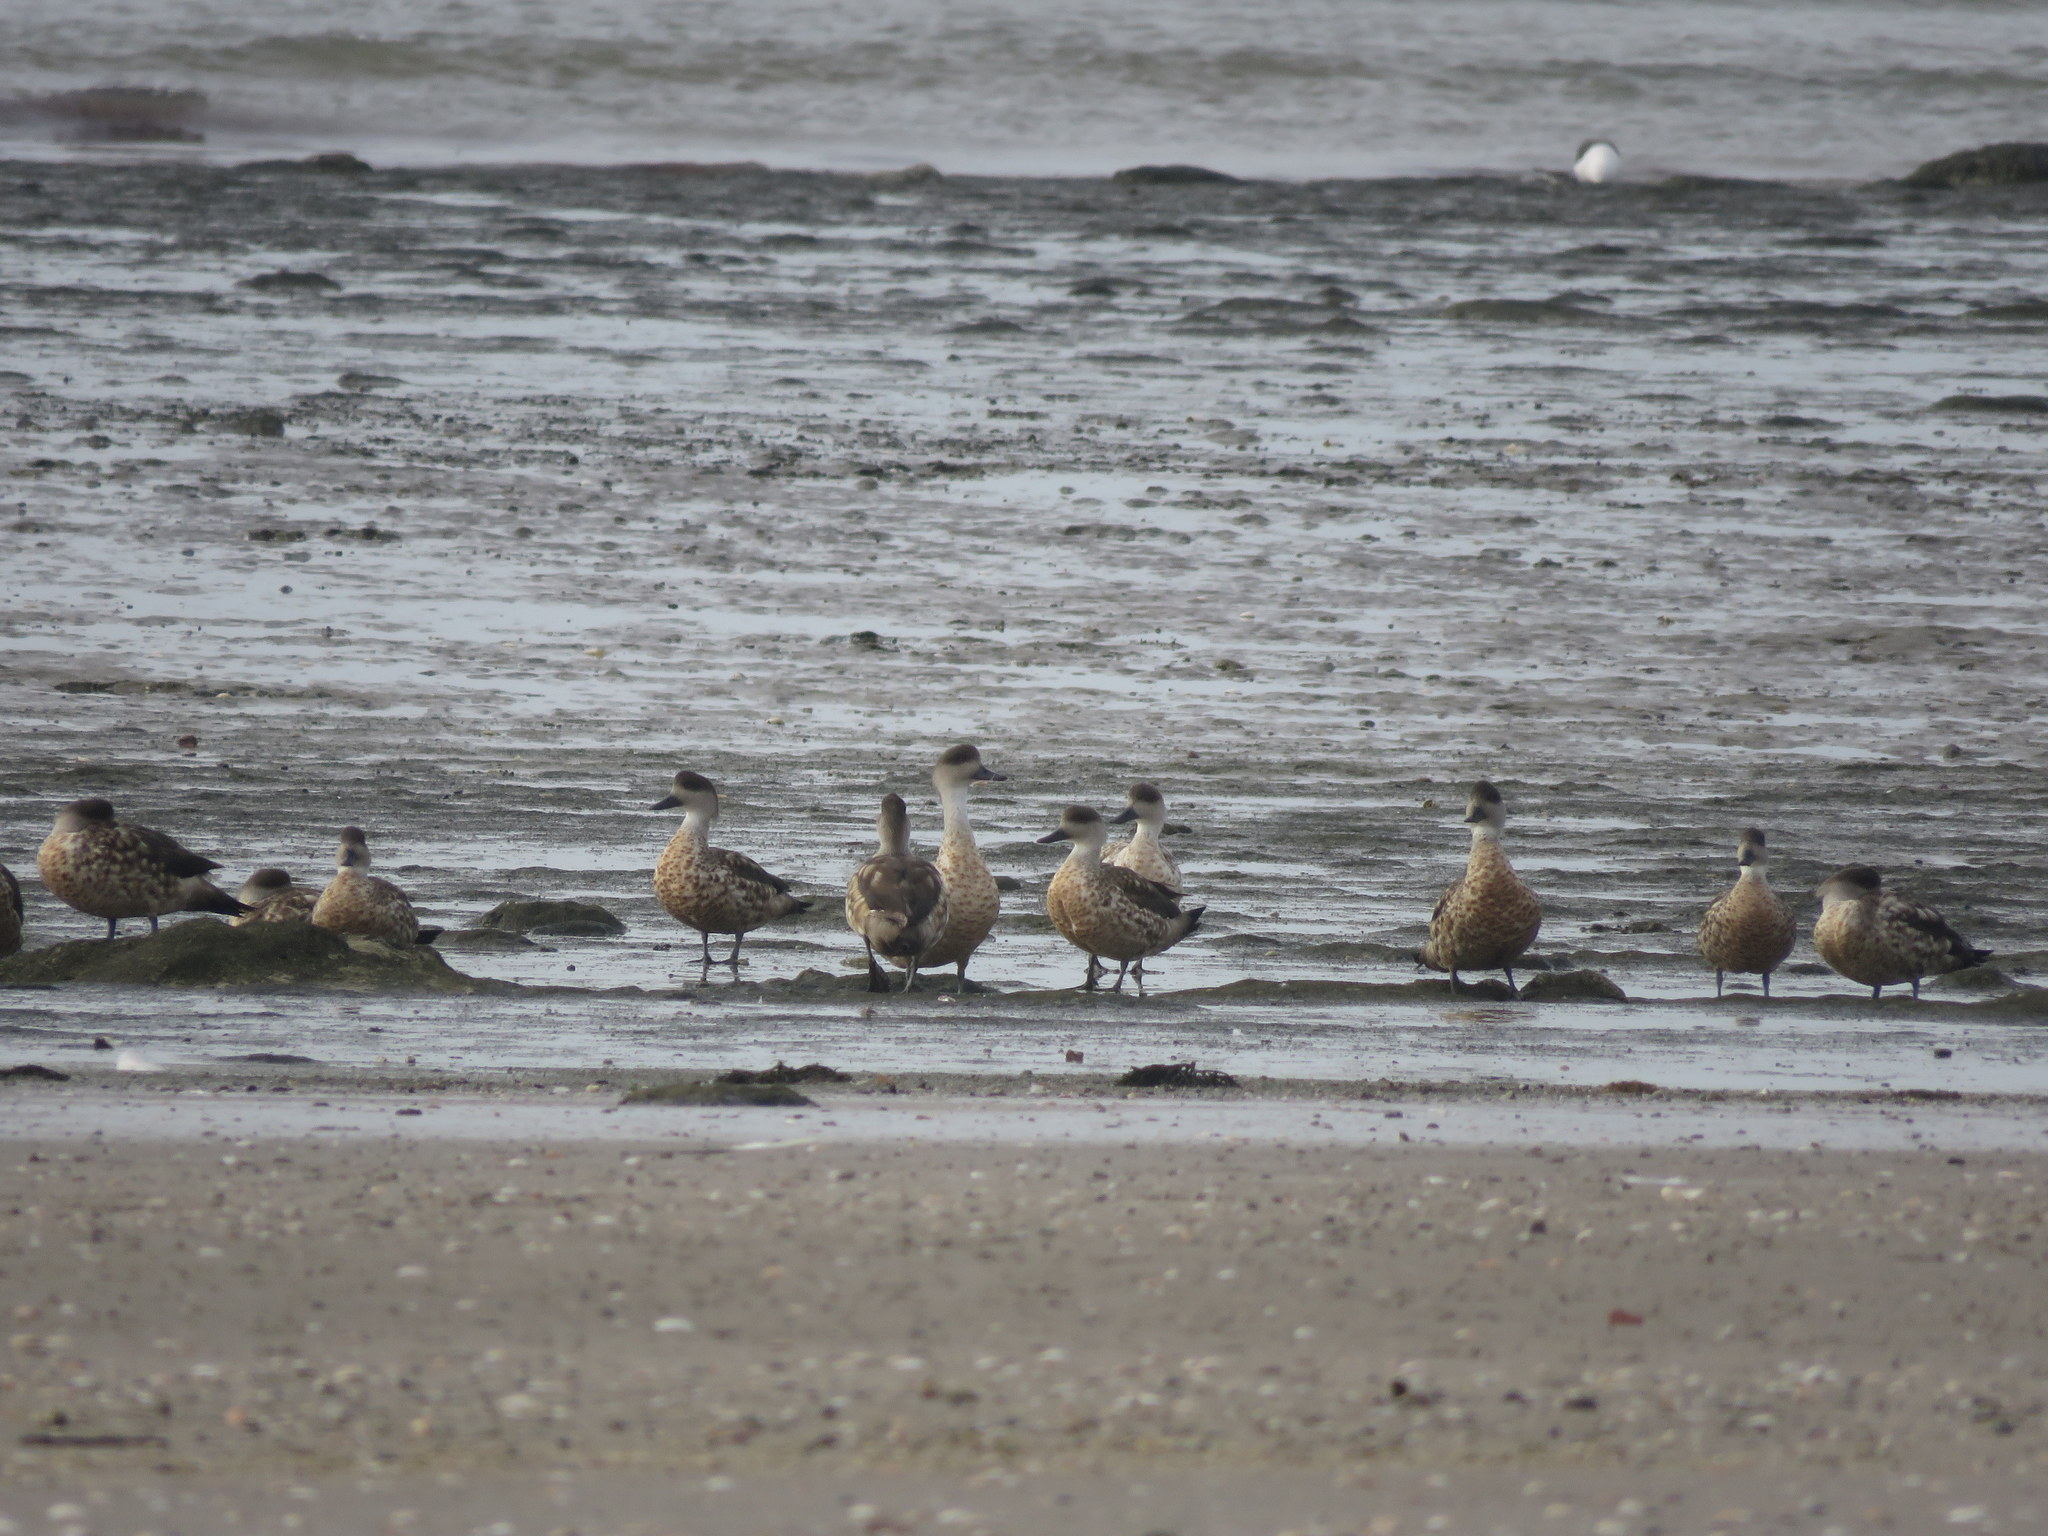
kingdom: Animalia
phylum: Chordata
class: Aves
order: Anseriformes
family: Anatidae
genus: Lophonetta
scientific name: Lophonetta specularioides
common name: Crested duck
